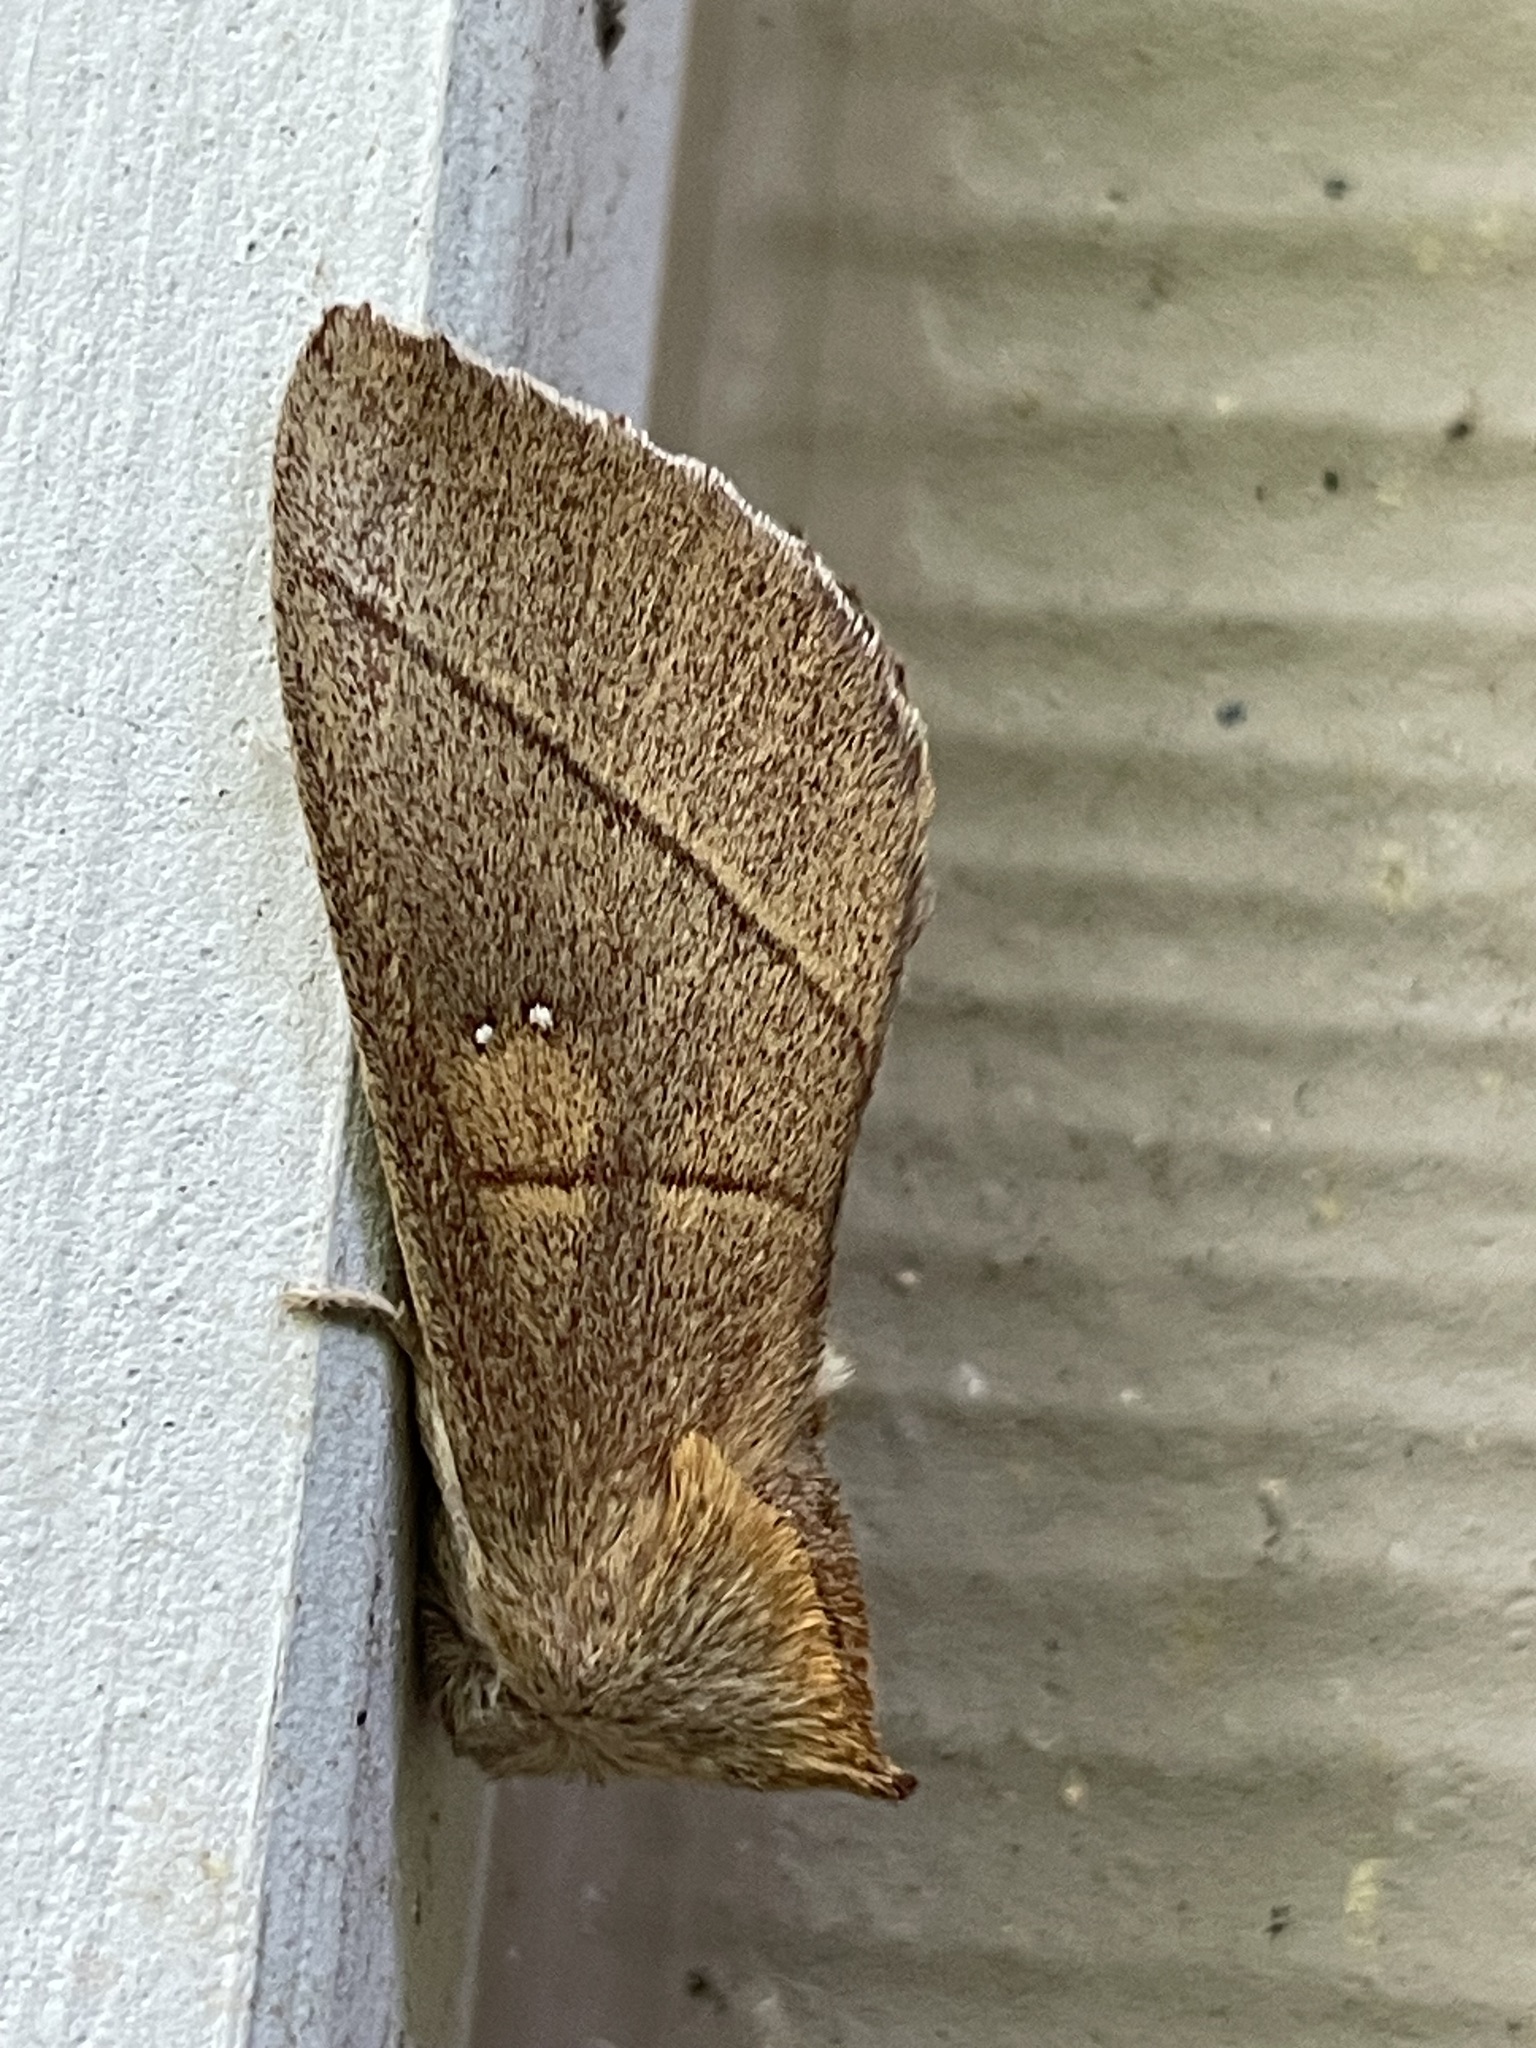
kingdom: Animalia
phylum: Arthropoda
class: Insecta
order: Lepidoptera
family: Notodontidae
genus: Nadata
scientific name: Nadata gibbosa
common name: White-dotted prominent
